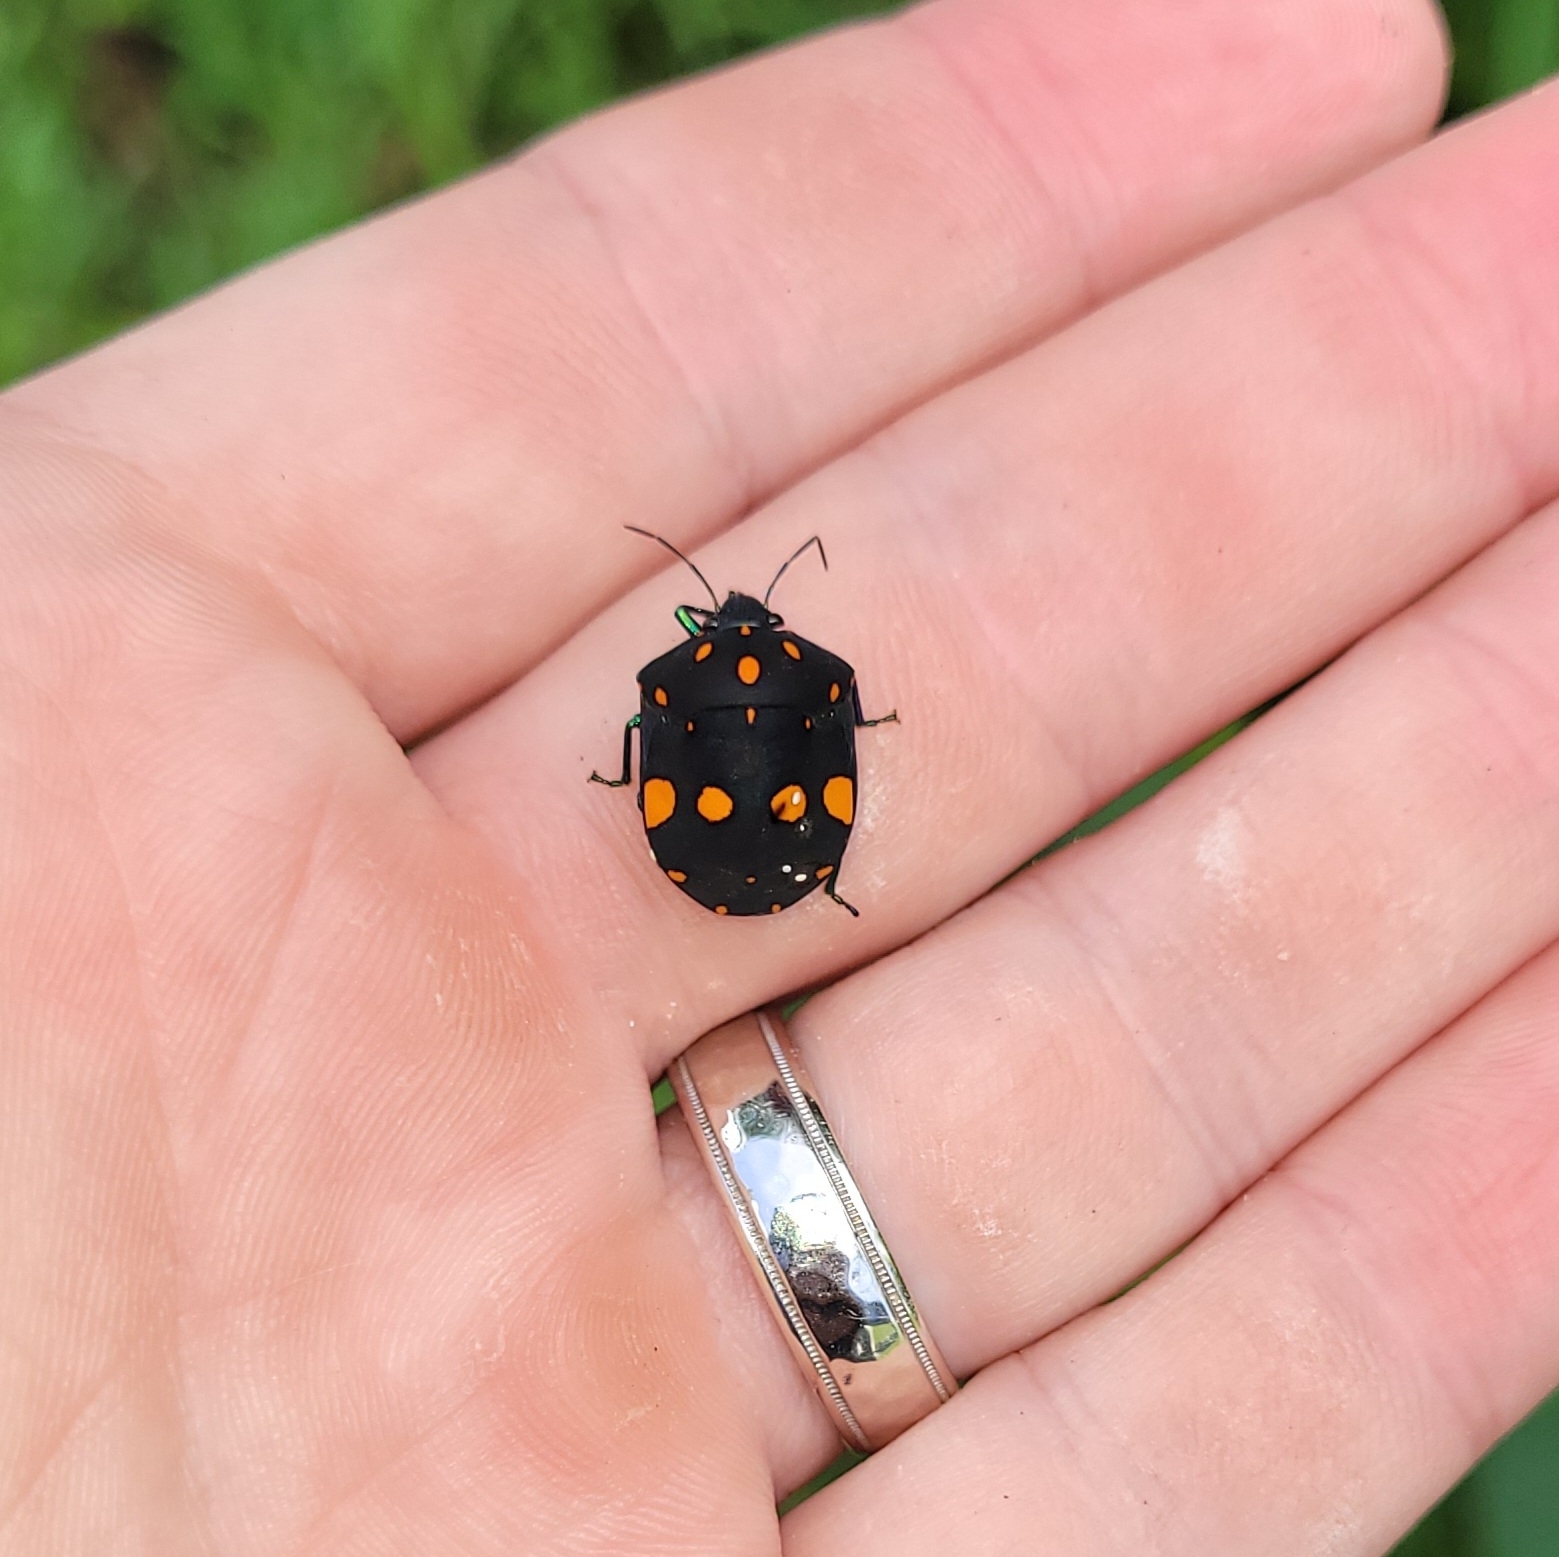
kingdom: Animalia
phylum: Arthropoda
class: Insecta
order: Hemiptera
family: Scutelleridae
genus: Pachycoris
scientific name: Pachycoris fabricii
